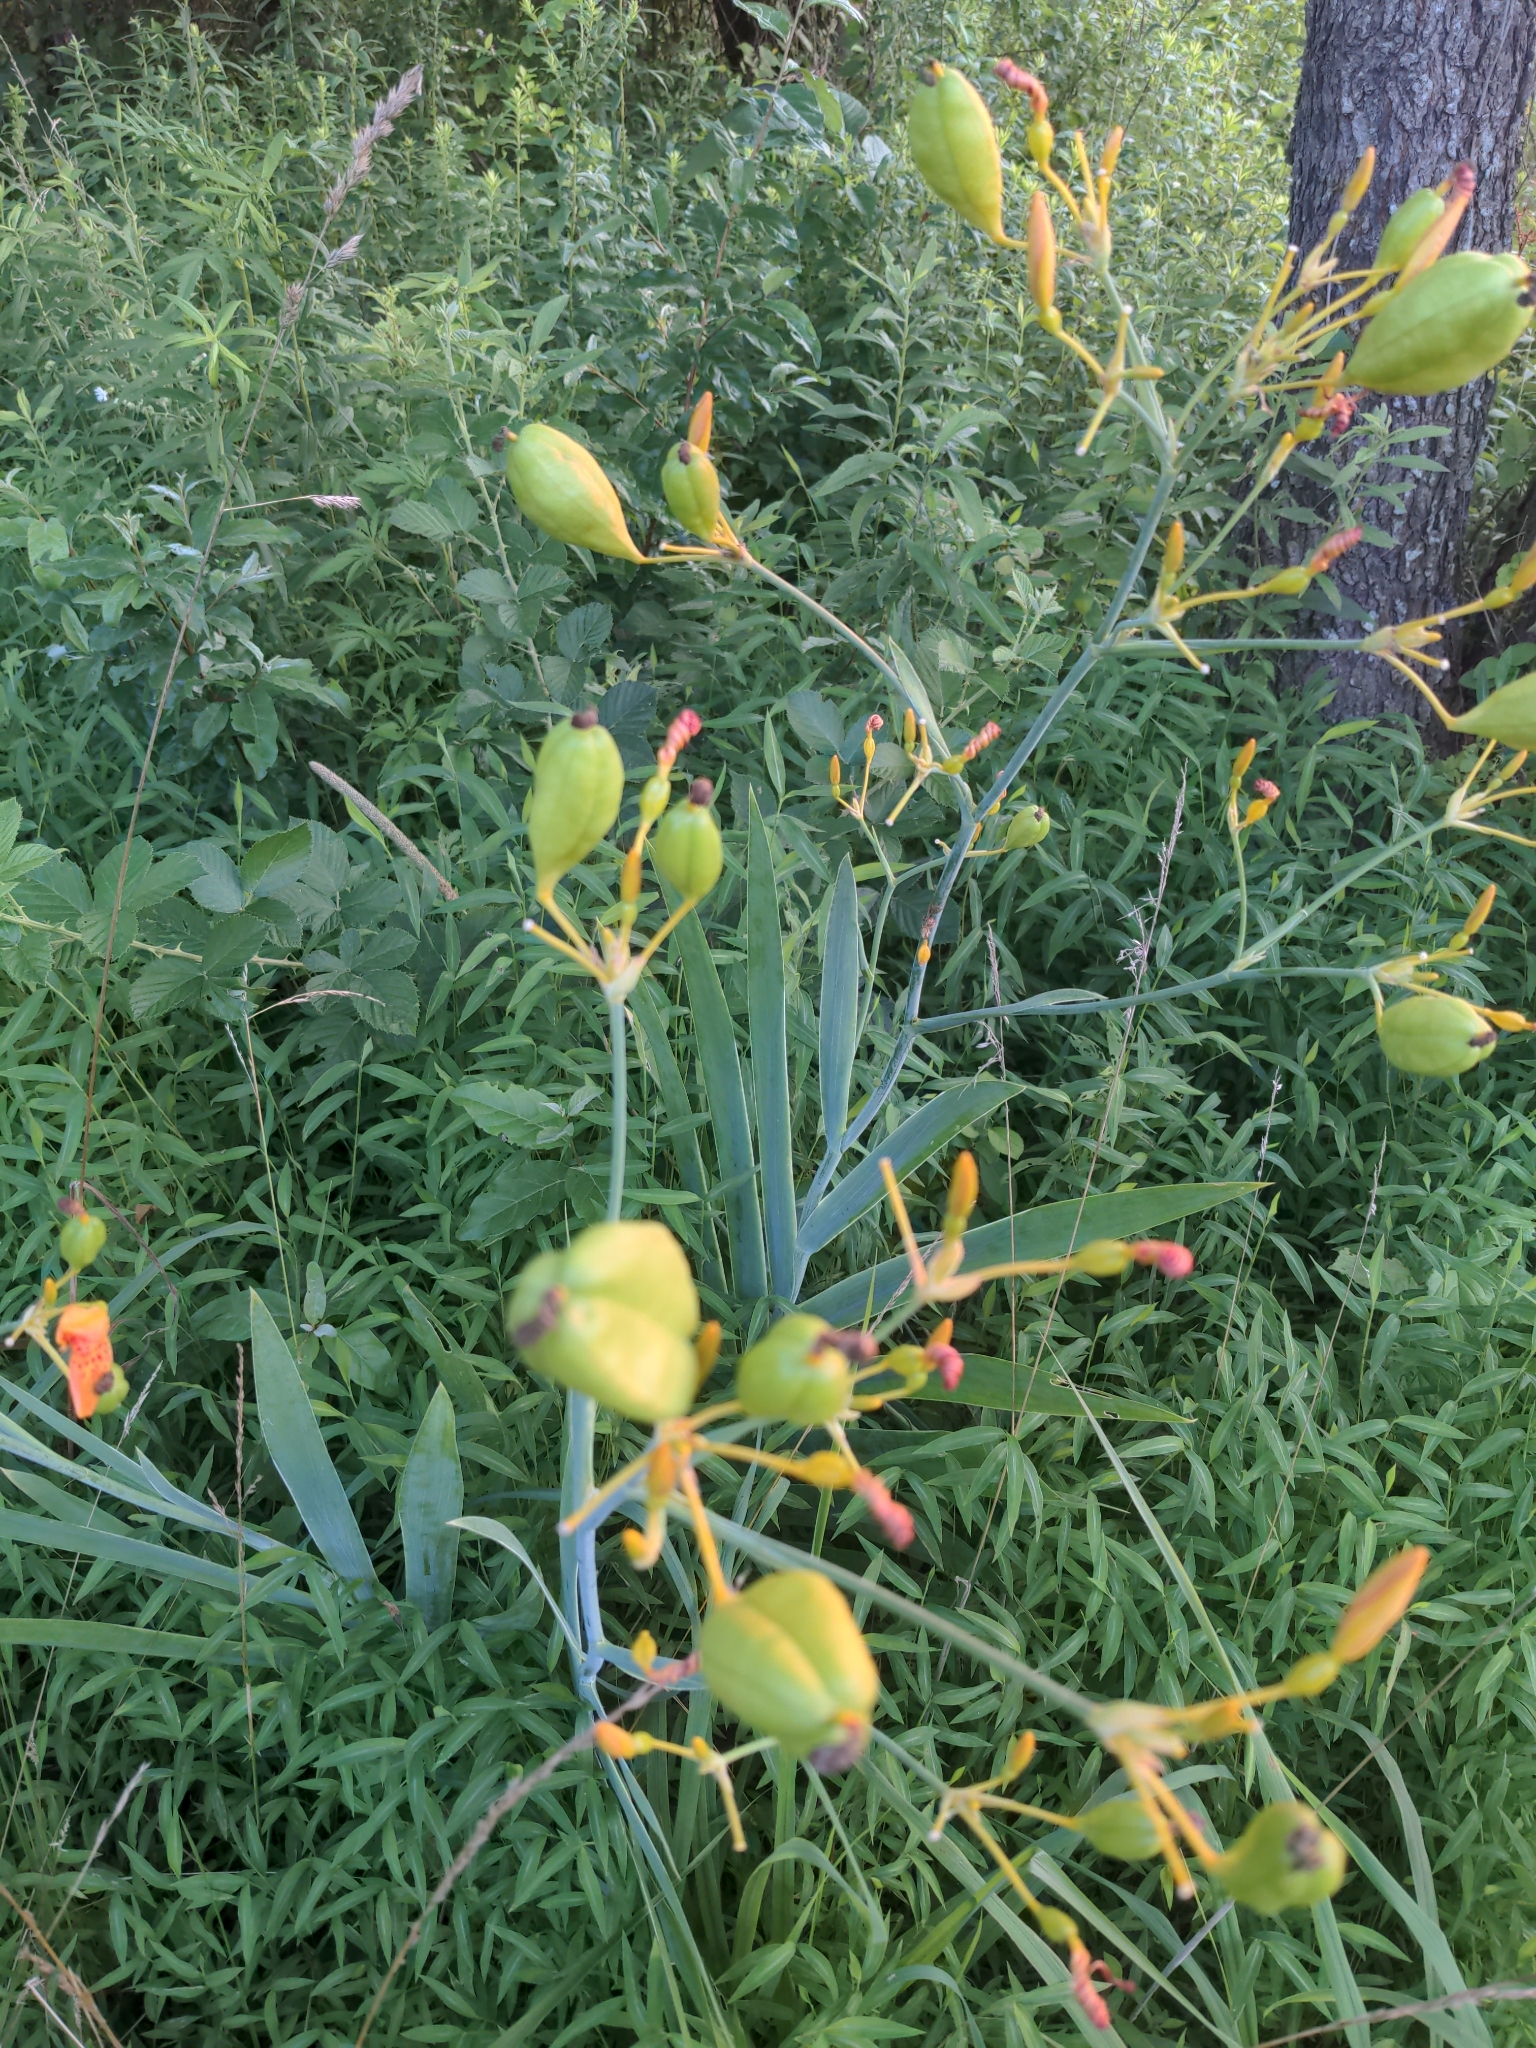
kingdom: Plantae
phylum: Tracheophyta
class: Liliopsida
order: Asparagales
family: Iridaceae
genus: Iris
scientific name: Iris domestica
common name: Belamcanda
